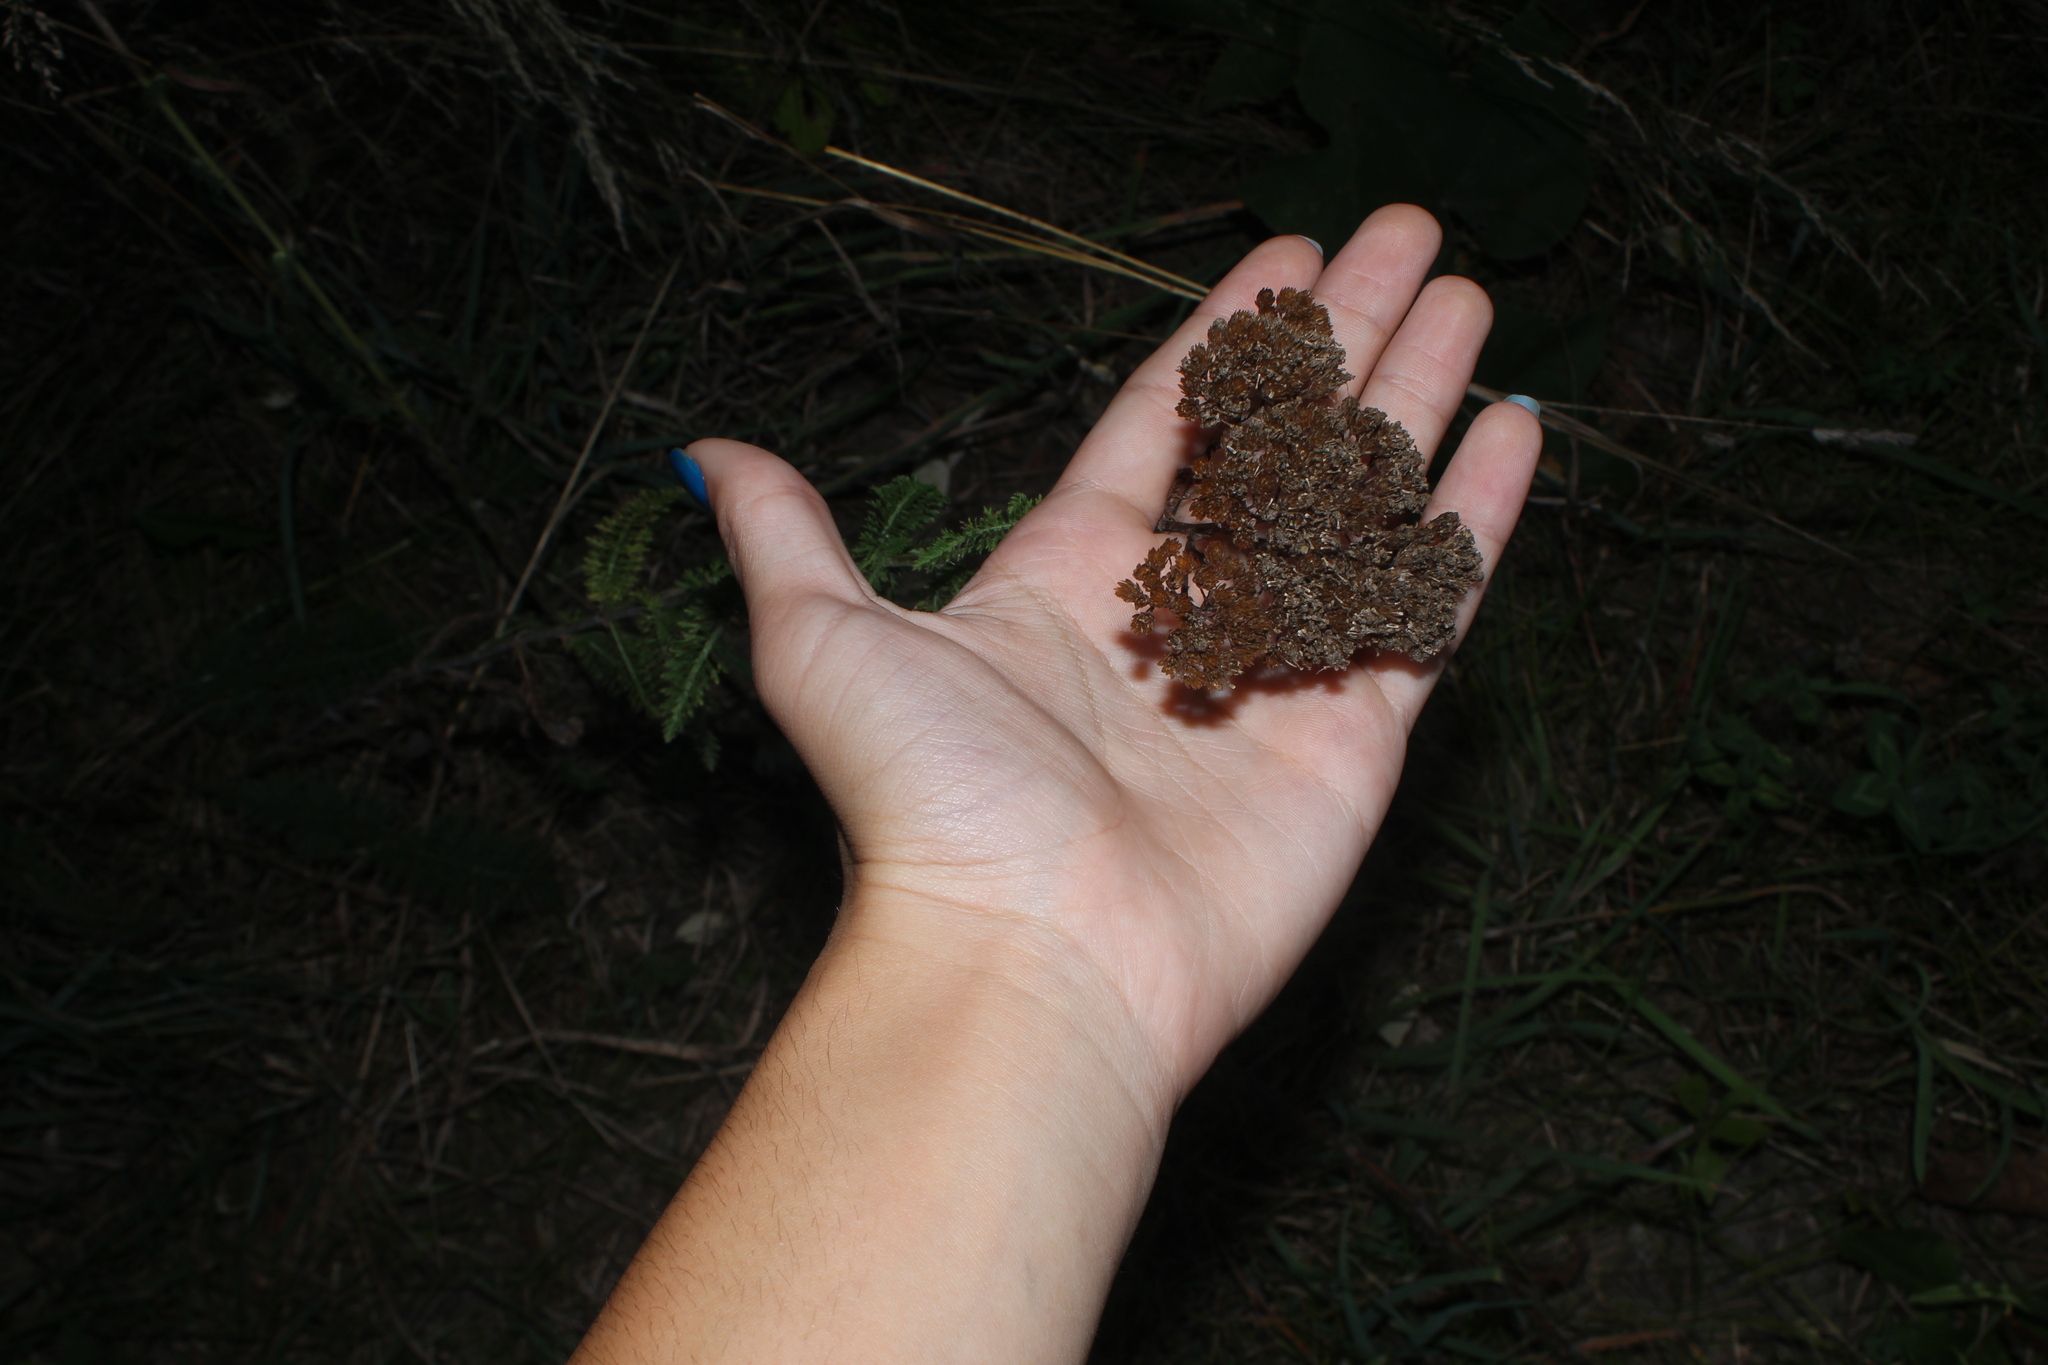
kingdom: Plantae
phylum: Tracheophyta
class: Magnoliopsida
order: Asterales
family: Asteraceae
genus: Achillea
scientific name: Achillea millefolium
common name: Yarrow
